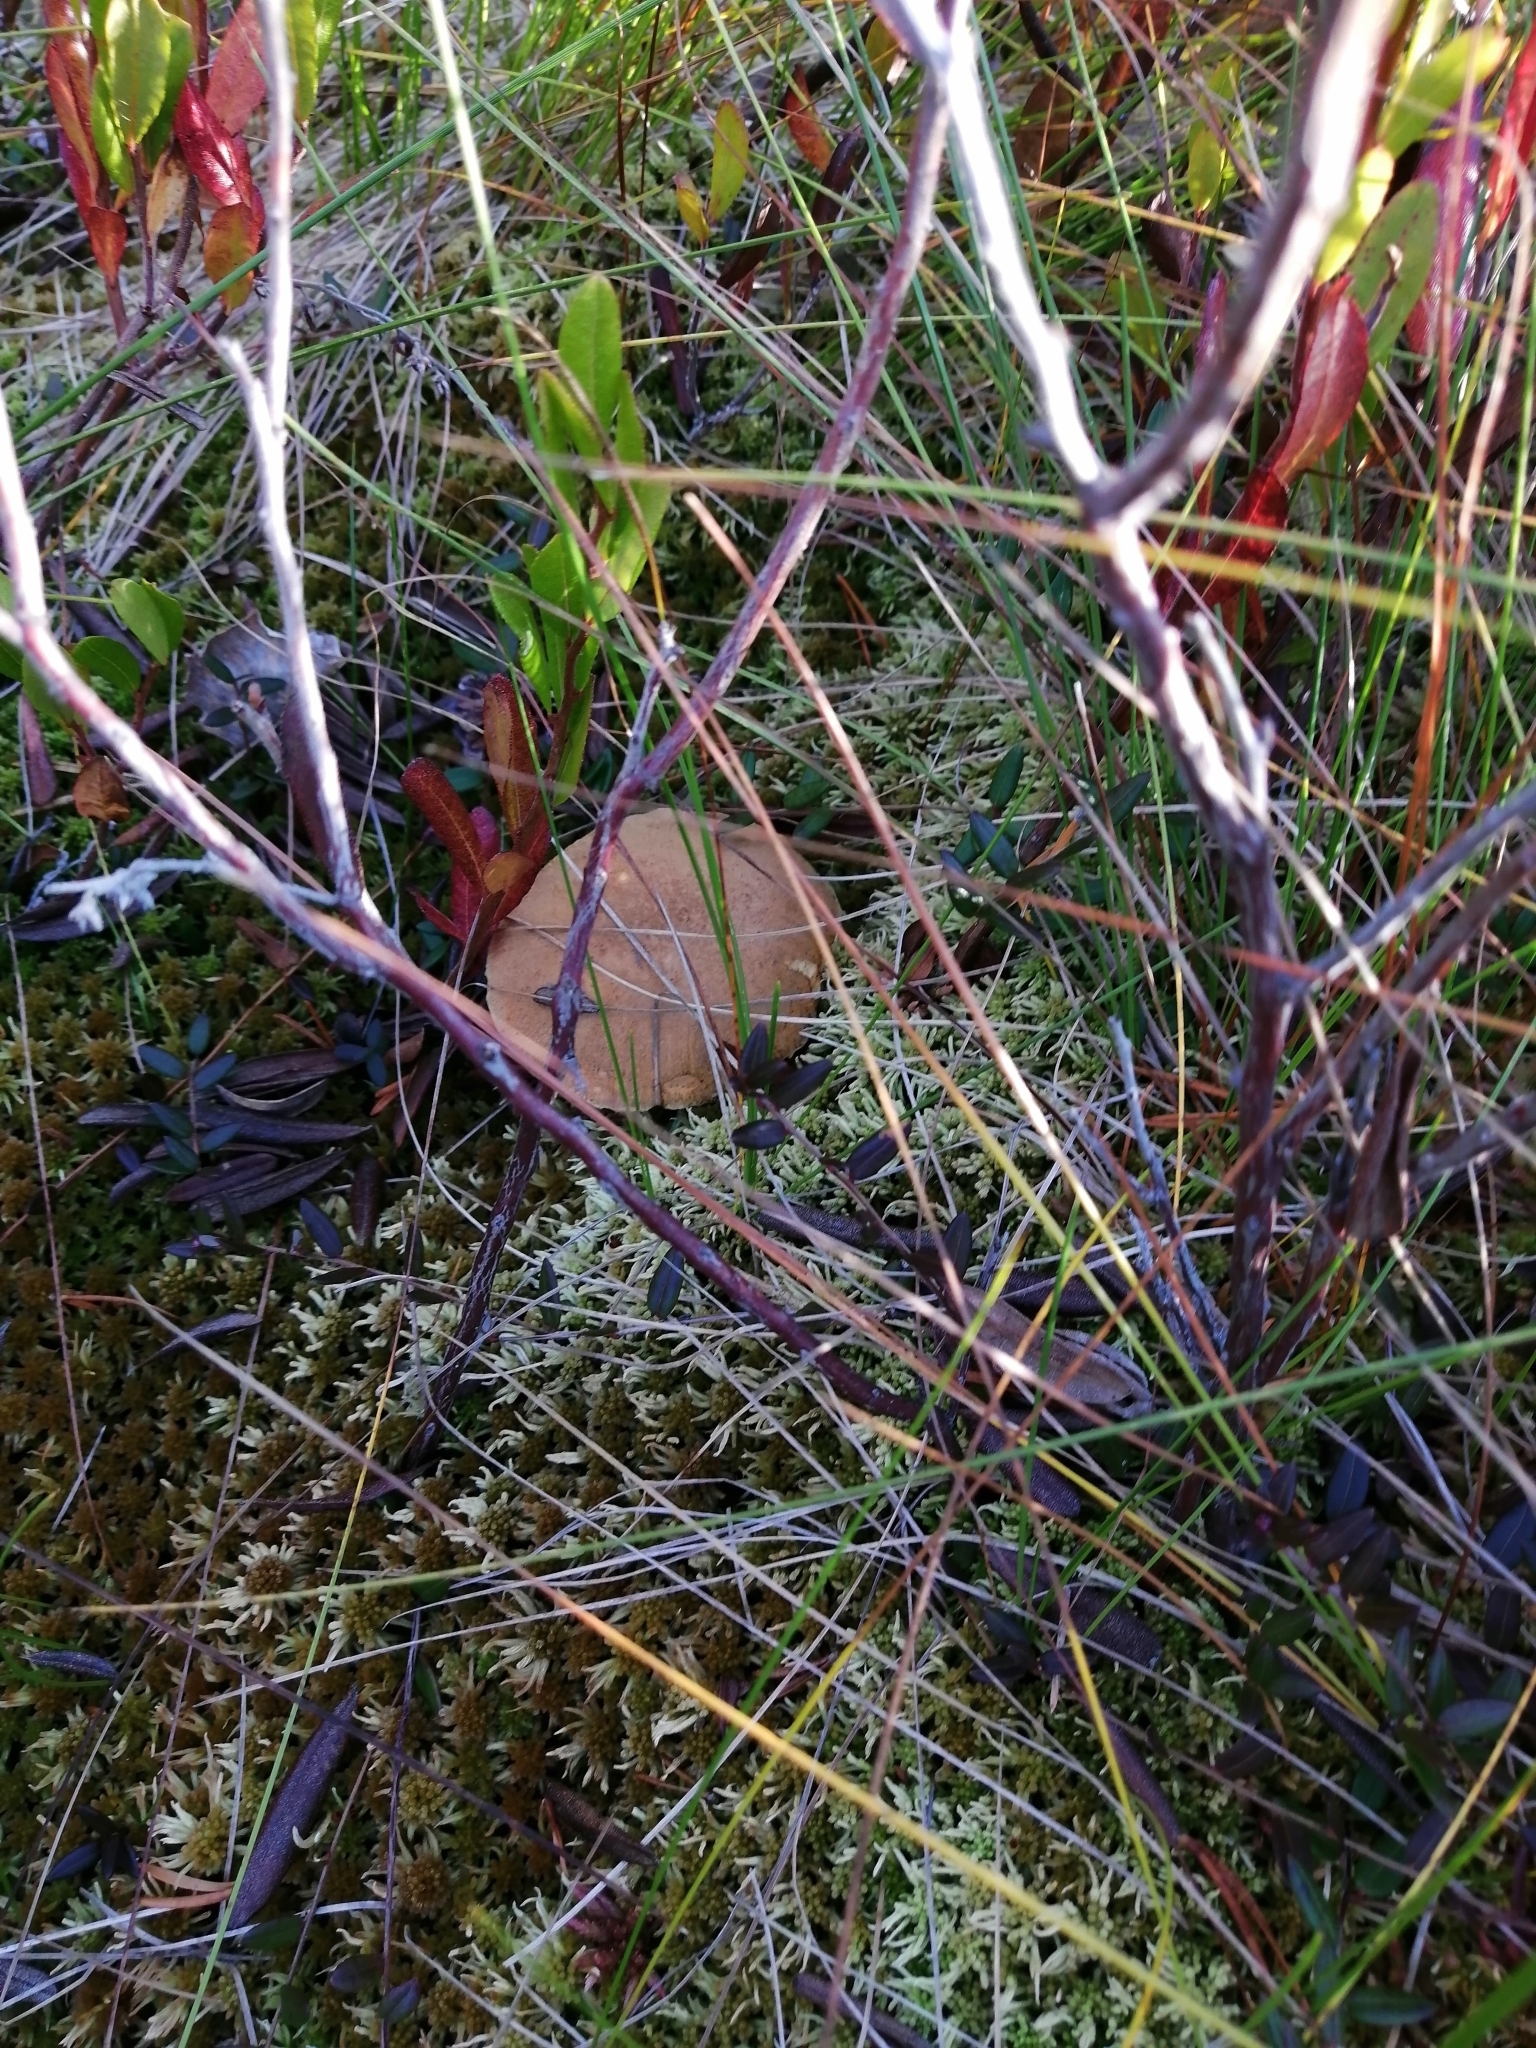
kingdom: Fungi
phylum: Basidiomycota
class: Agaricomycetes
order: Boletales
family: Suillaceae
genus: Suillus
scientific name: Suillus variegatus
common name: Velvet bolete
